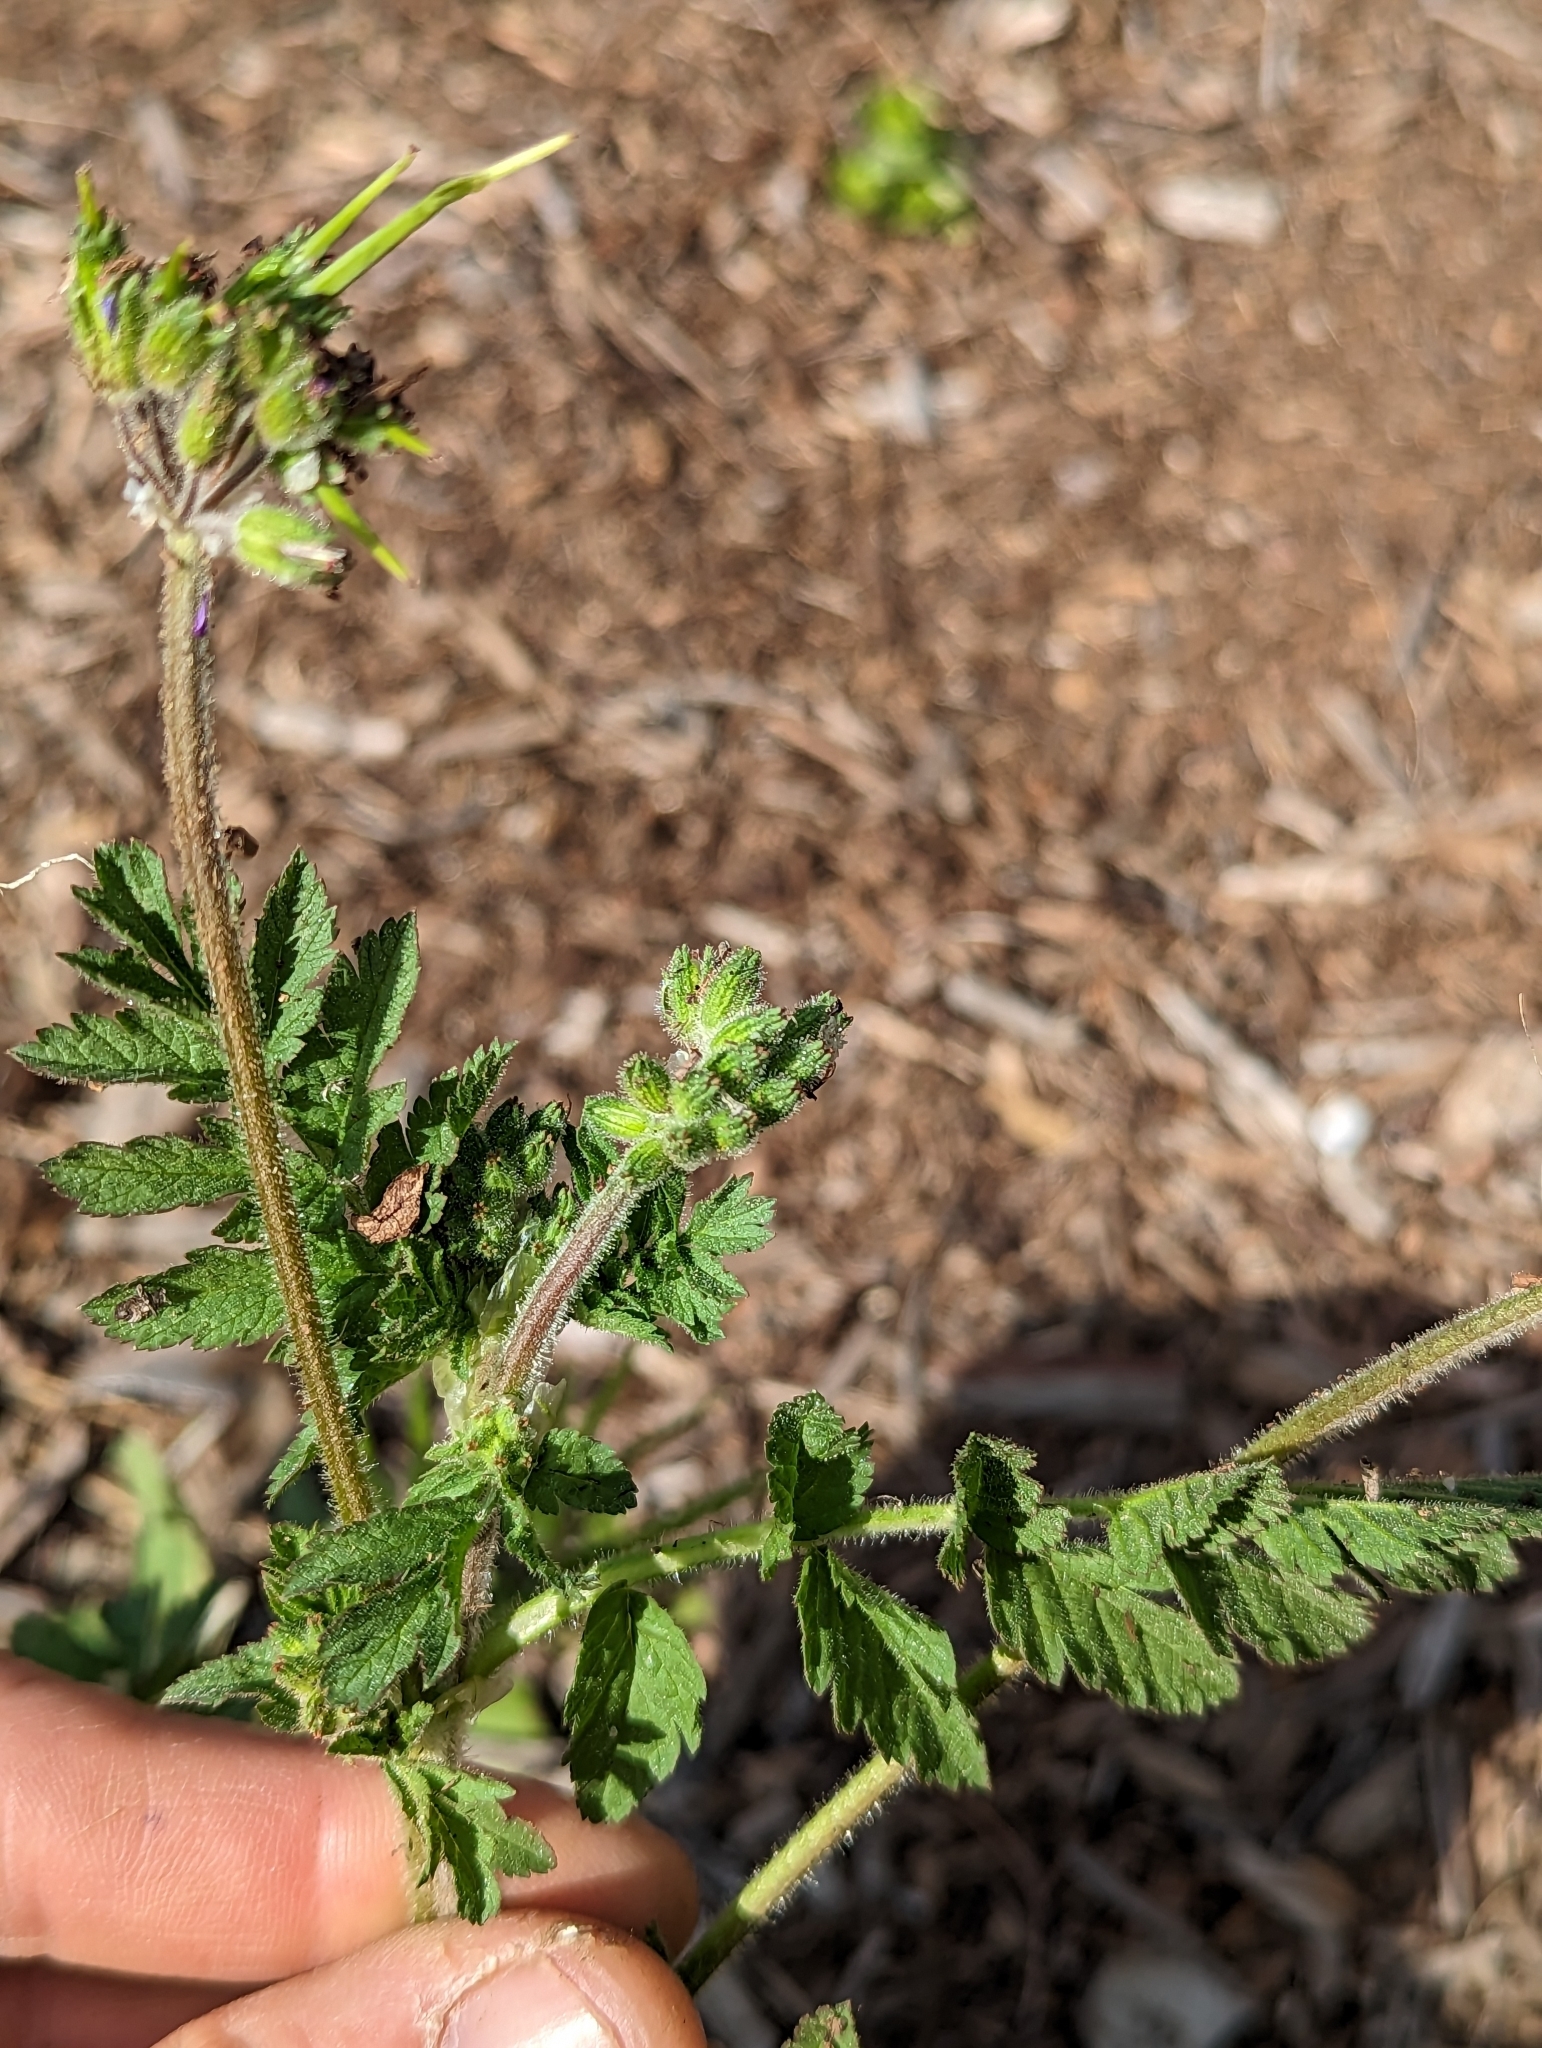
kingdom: Plantae
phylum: Tracheophyta
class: Magnoliopsida
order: Geraniales
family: Geraniaceae
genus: Erodium
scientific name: Erodium moschatum
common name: Musk stork's-bill
